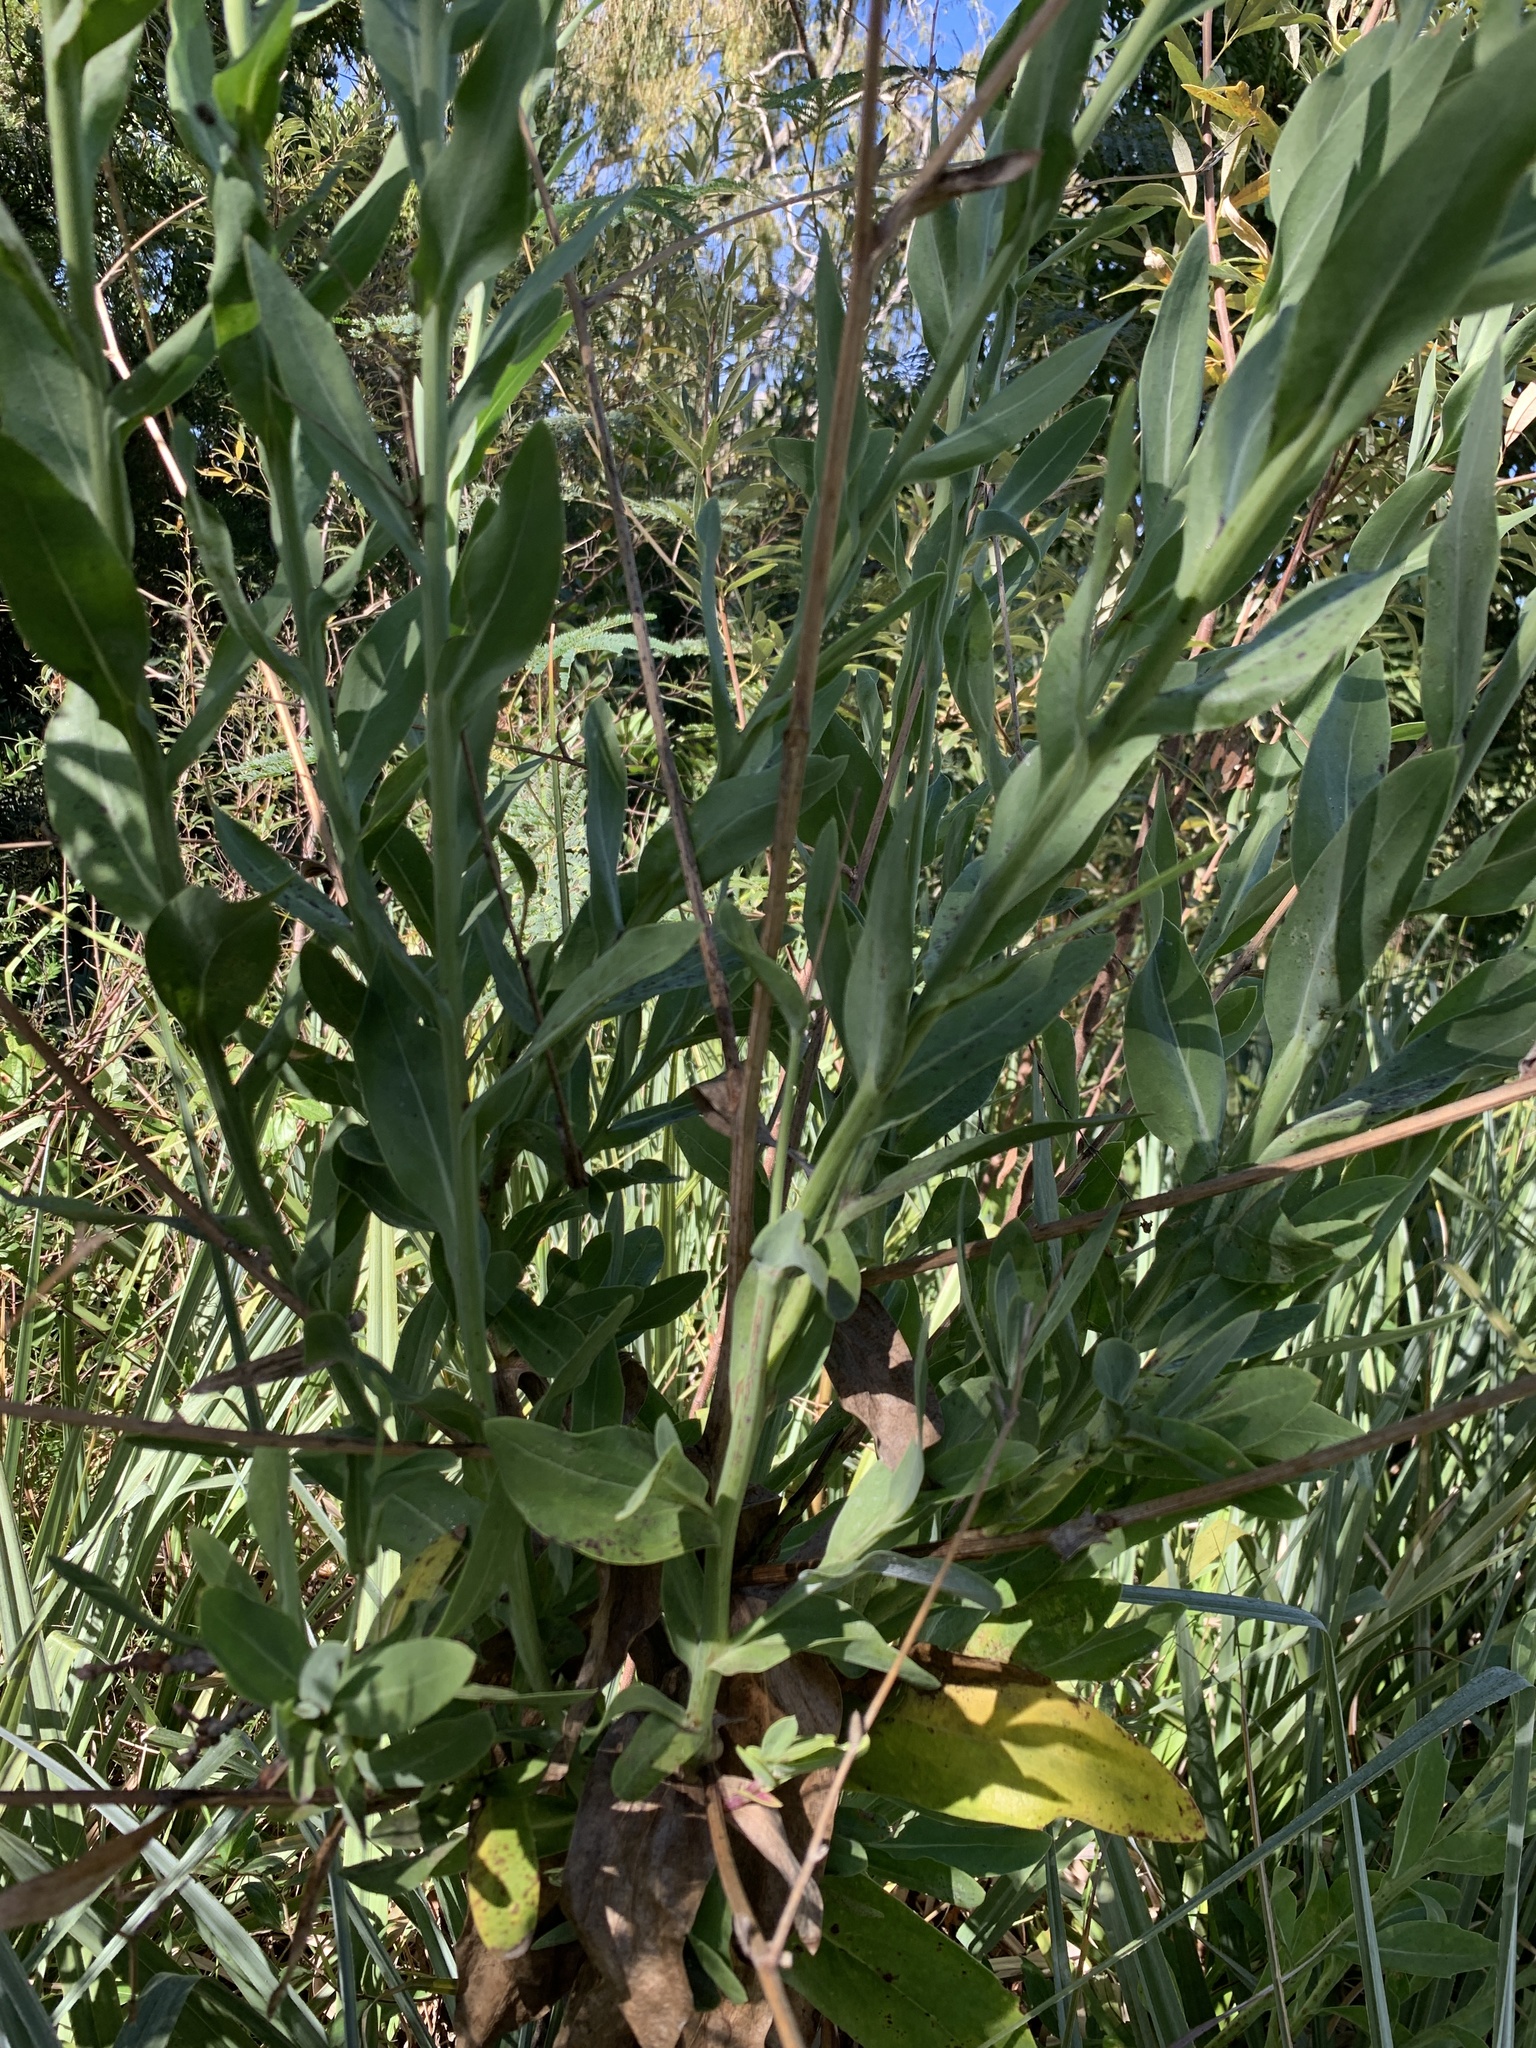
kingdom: Plantae
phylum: Tracheophyta
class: Magnoliopsida
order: Asterales
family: Asteraceae
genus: Othonna
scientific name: Othonna quinquedentata
